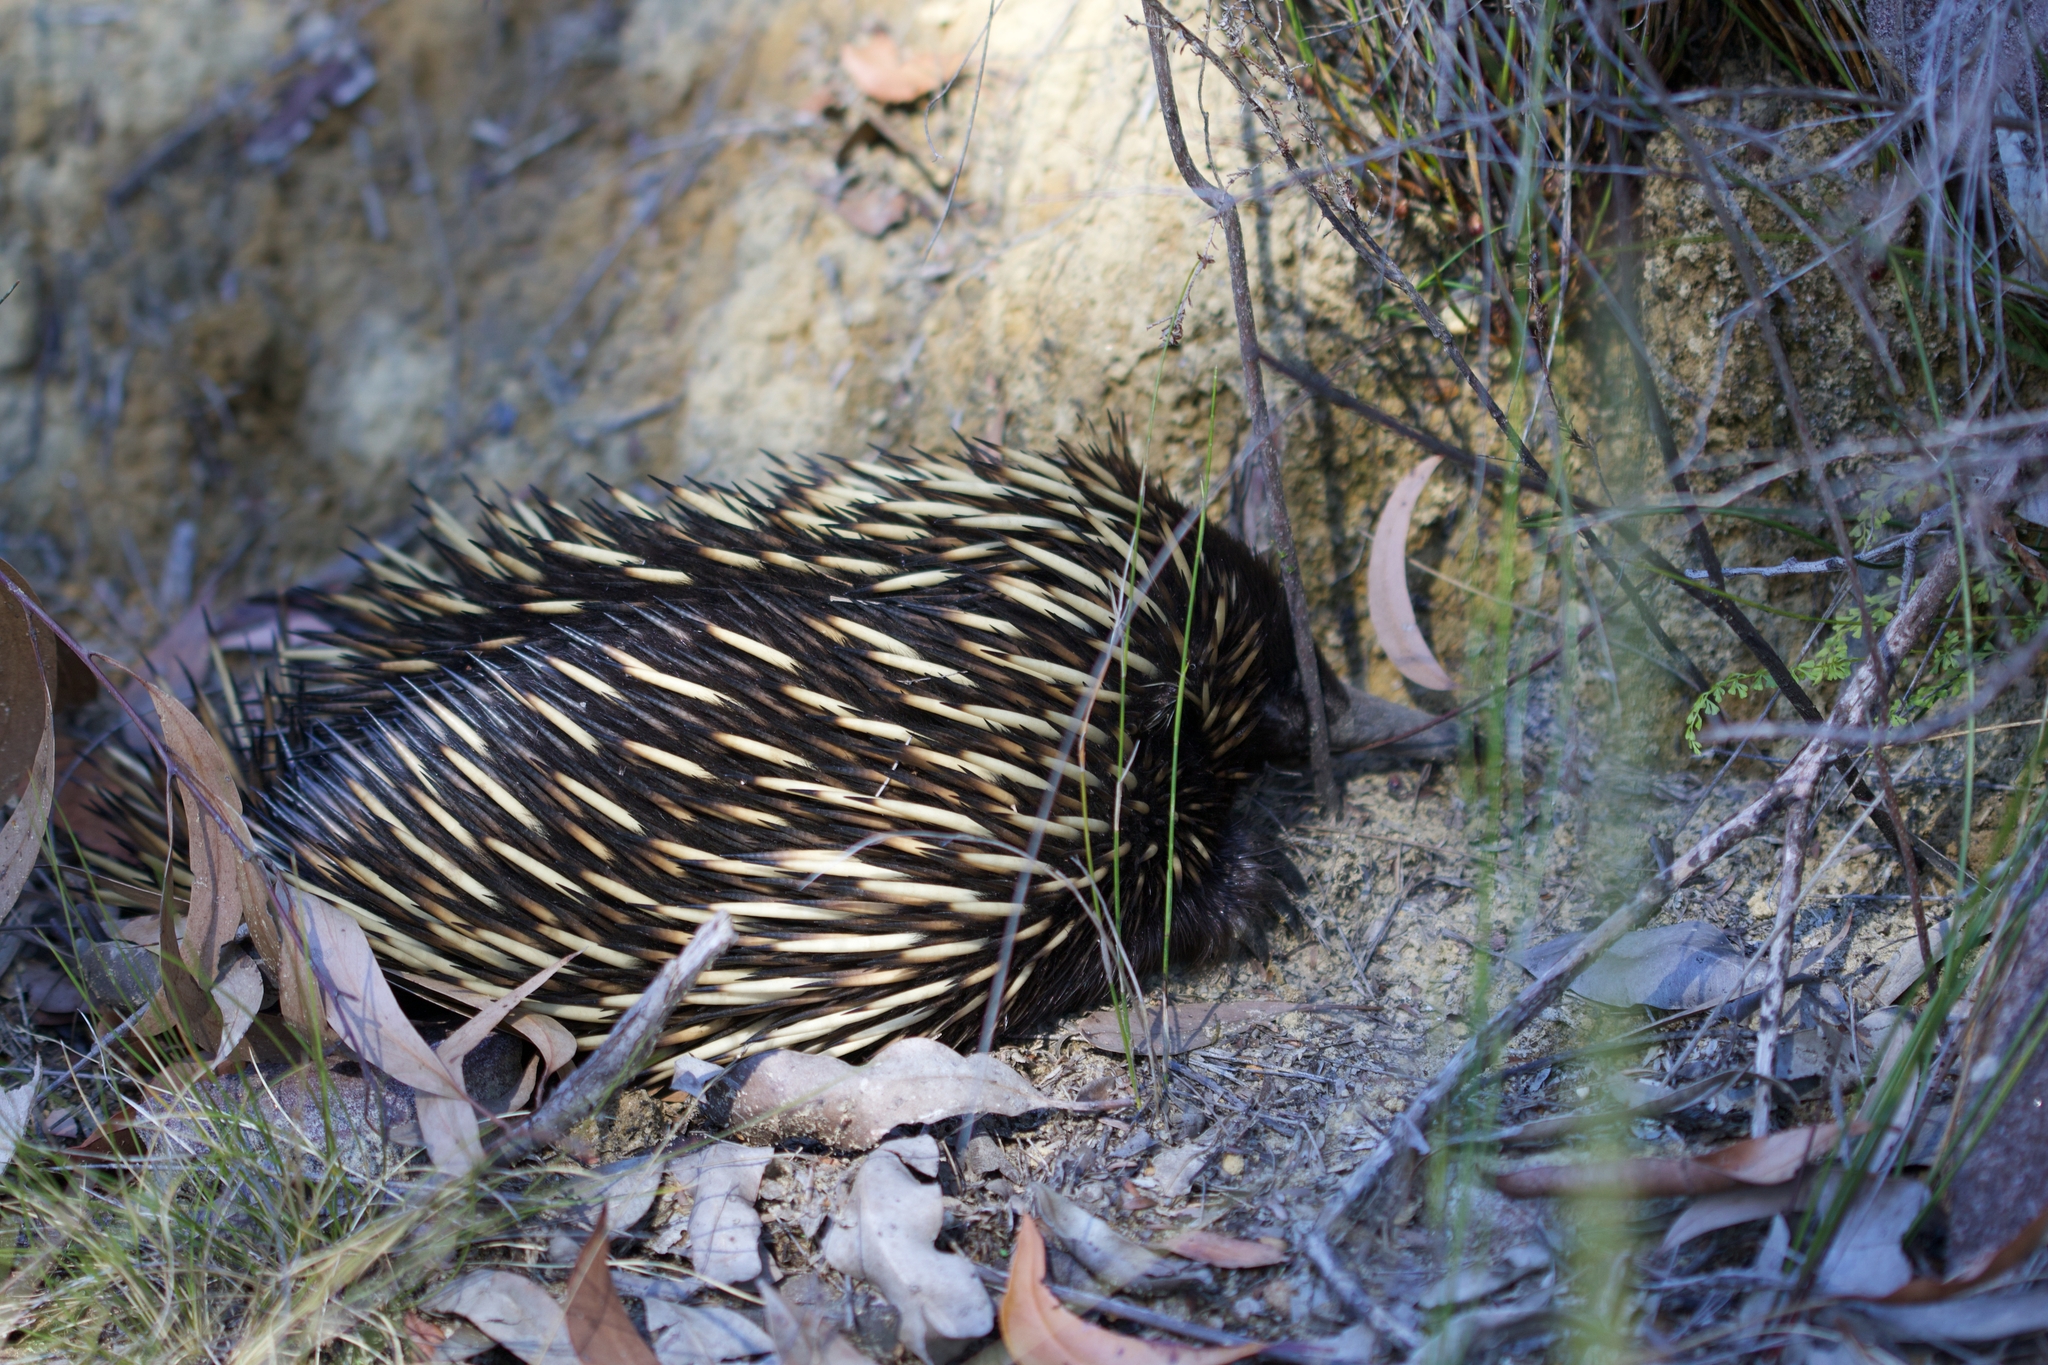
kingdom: Animalia
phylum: Chordata
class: Mammalia
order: Monotremata
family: Tachyglossidae
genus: Tachyglossus
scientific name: Tachyglossus aculeatus
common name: Short-beaked echidna
